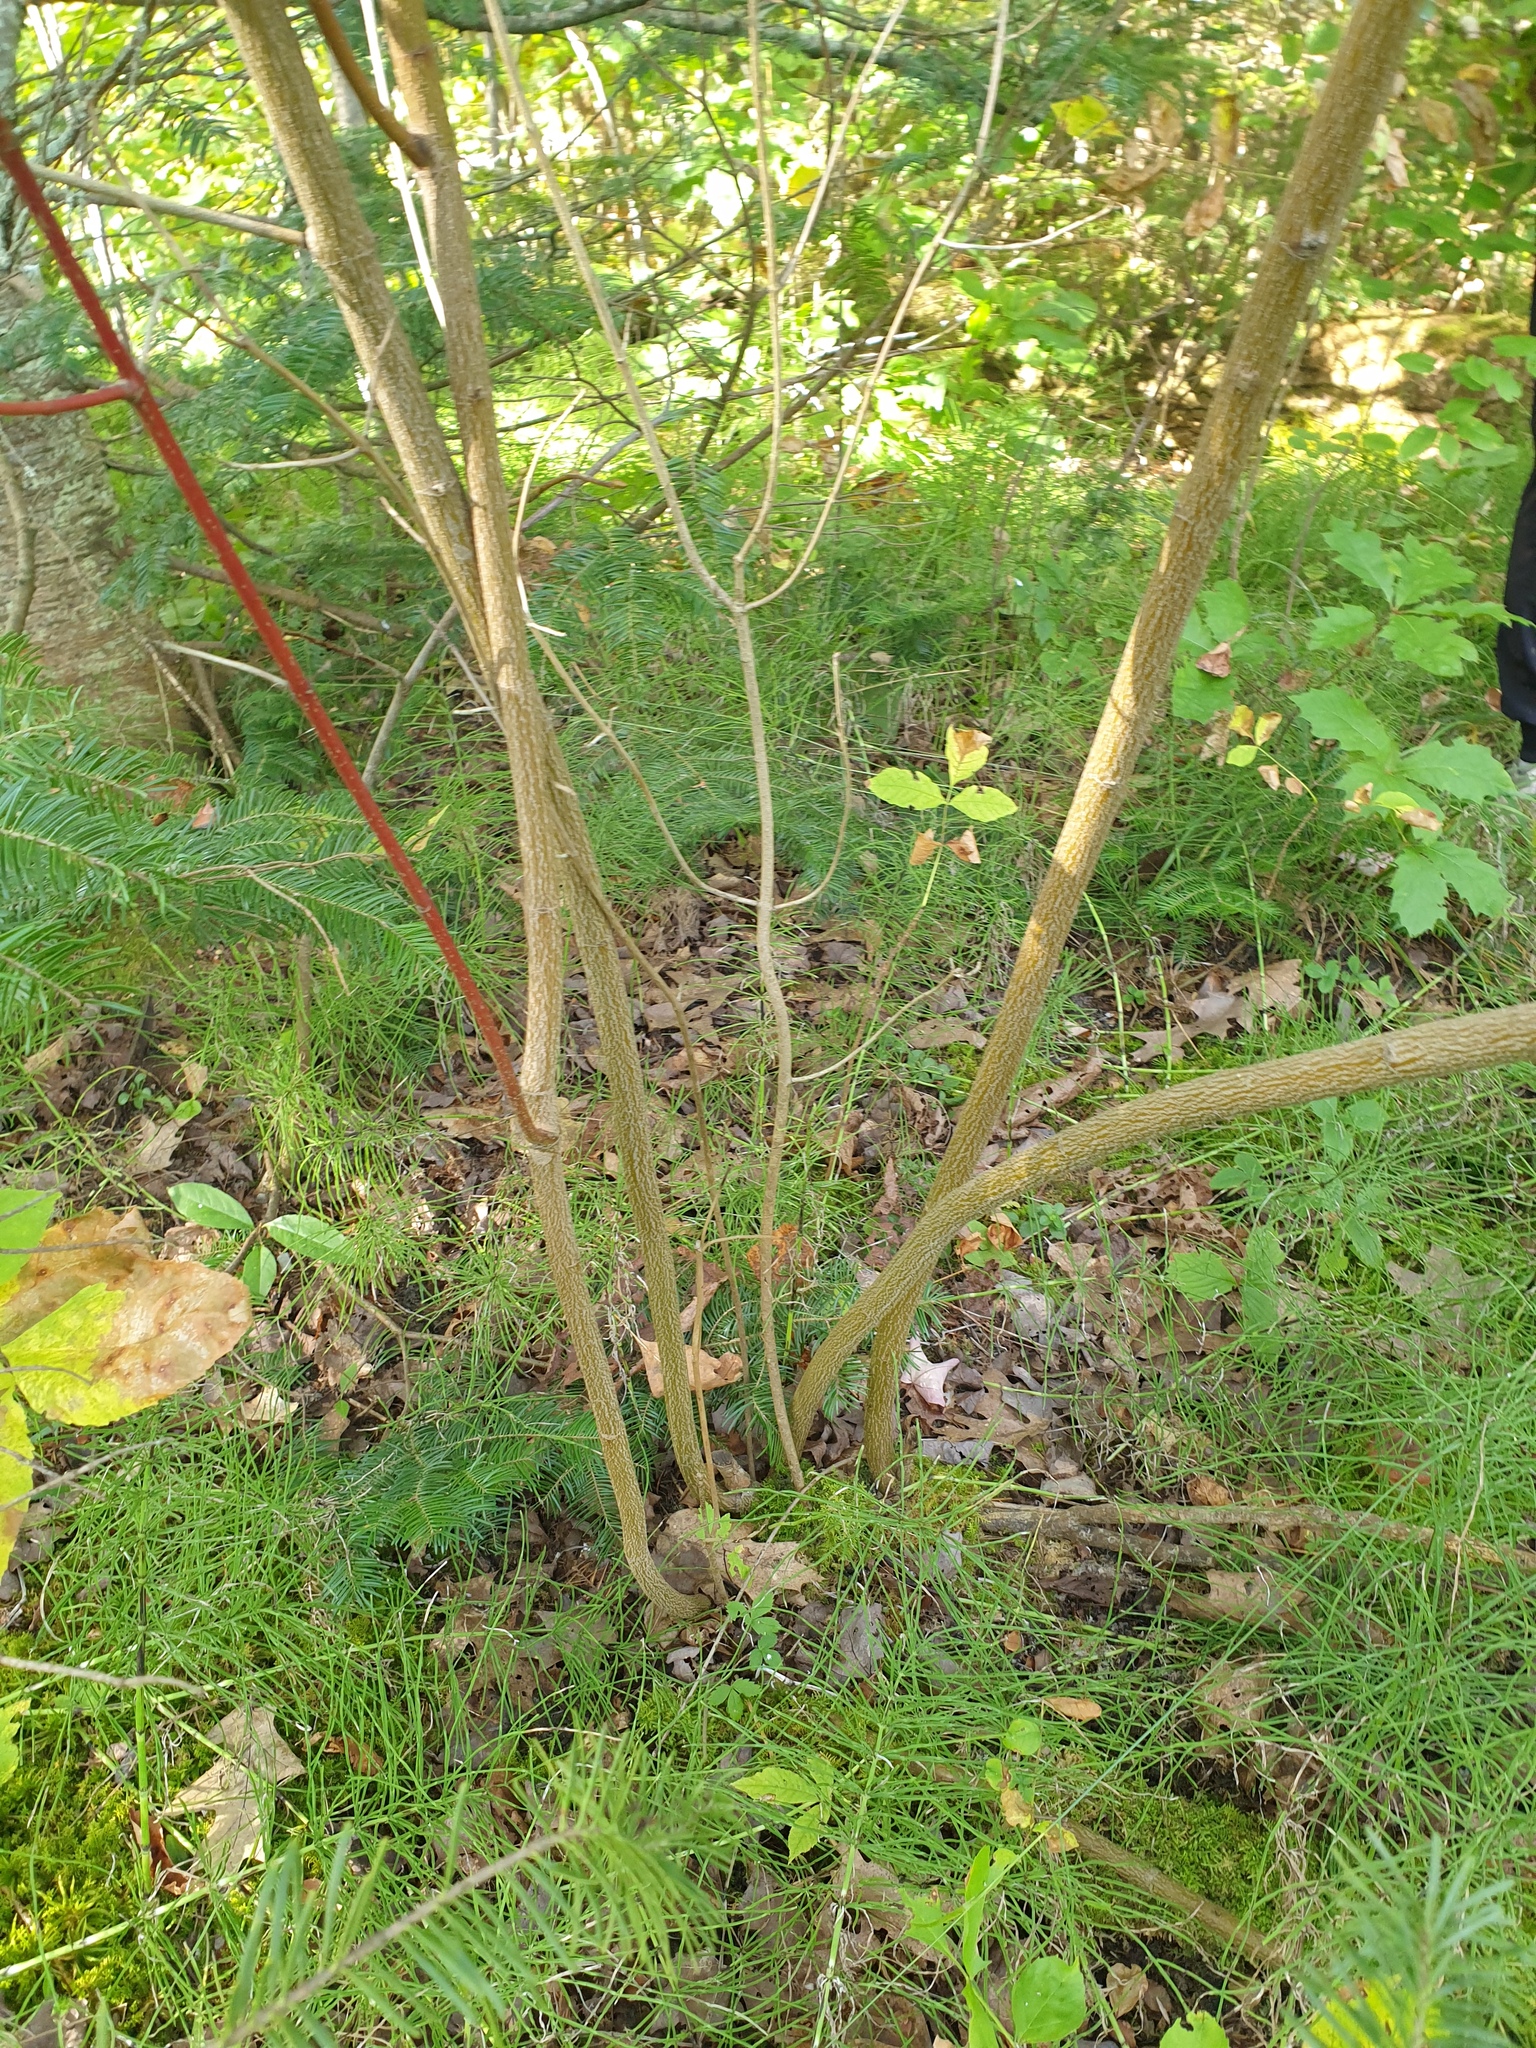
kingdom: Plantae
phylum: Tracheophyta
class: Magnoliopsida
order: Cornales
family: Cornaceae
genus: Cornus
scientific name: Cornus obliqua
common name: Pale dogwood
